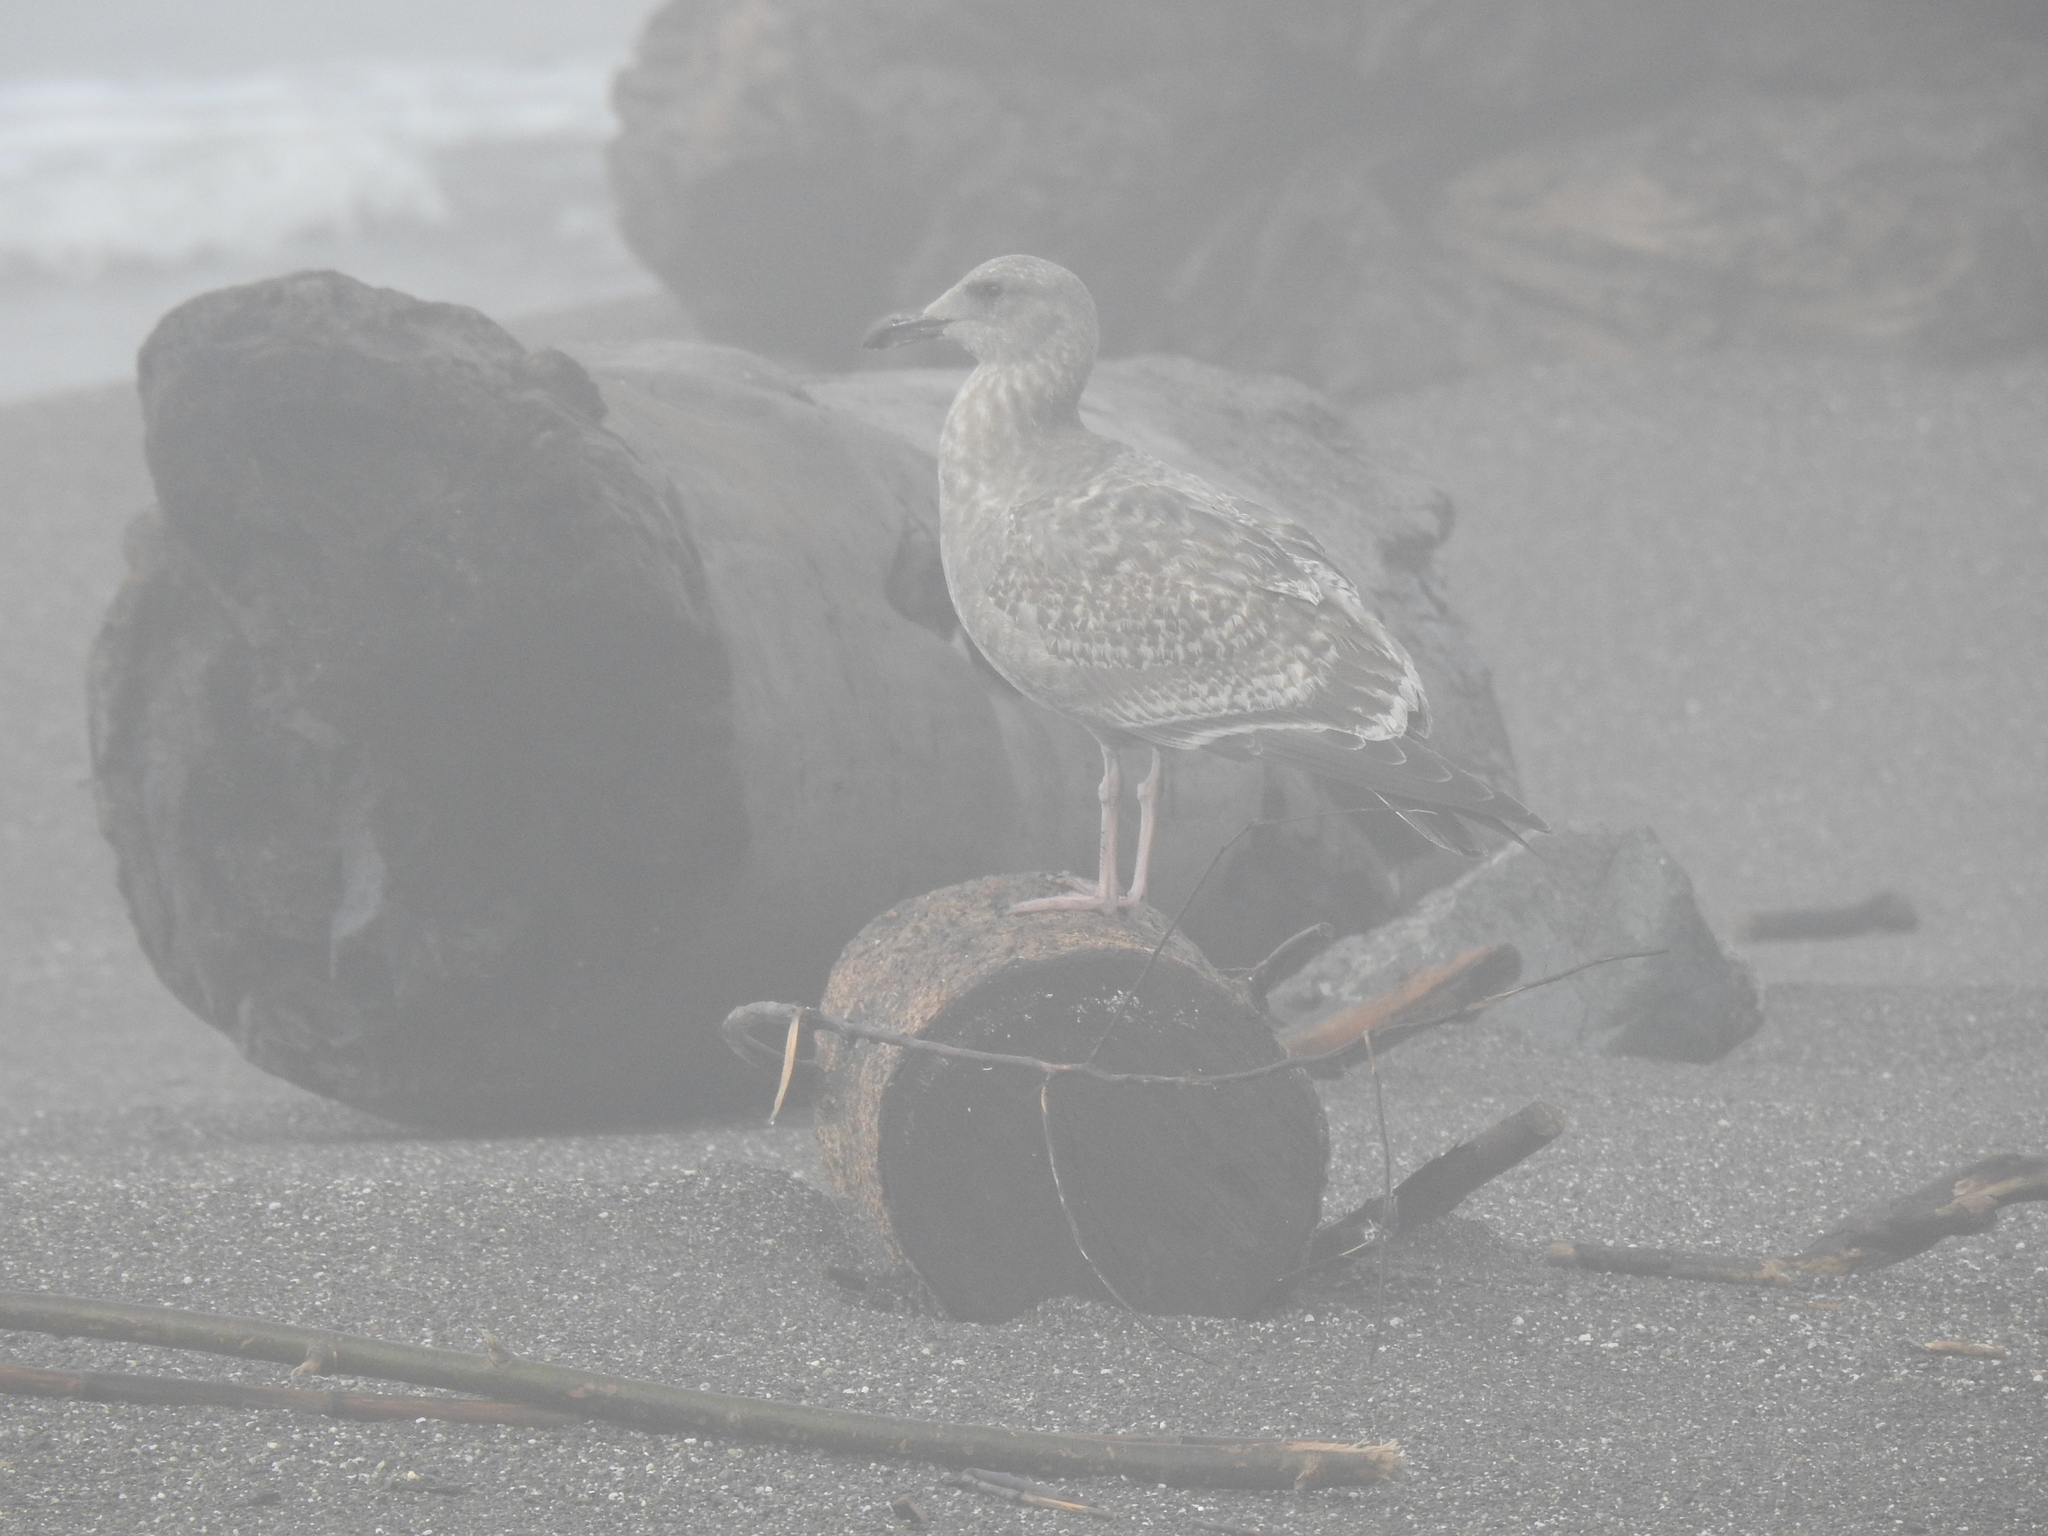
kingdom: Animalia
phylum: Chordata
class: Aves
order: Charadriiformes
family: Laridae
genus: Larus
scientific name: Larus occidentalis
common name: Western gull
